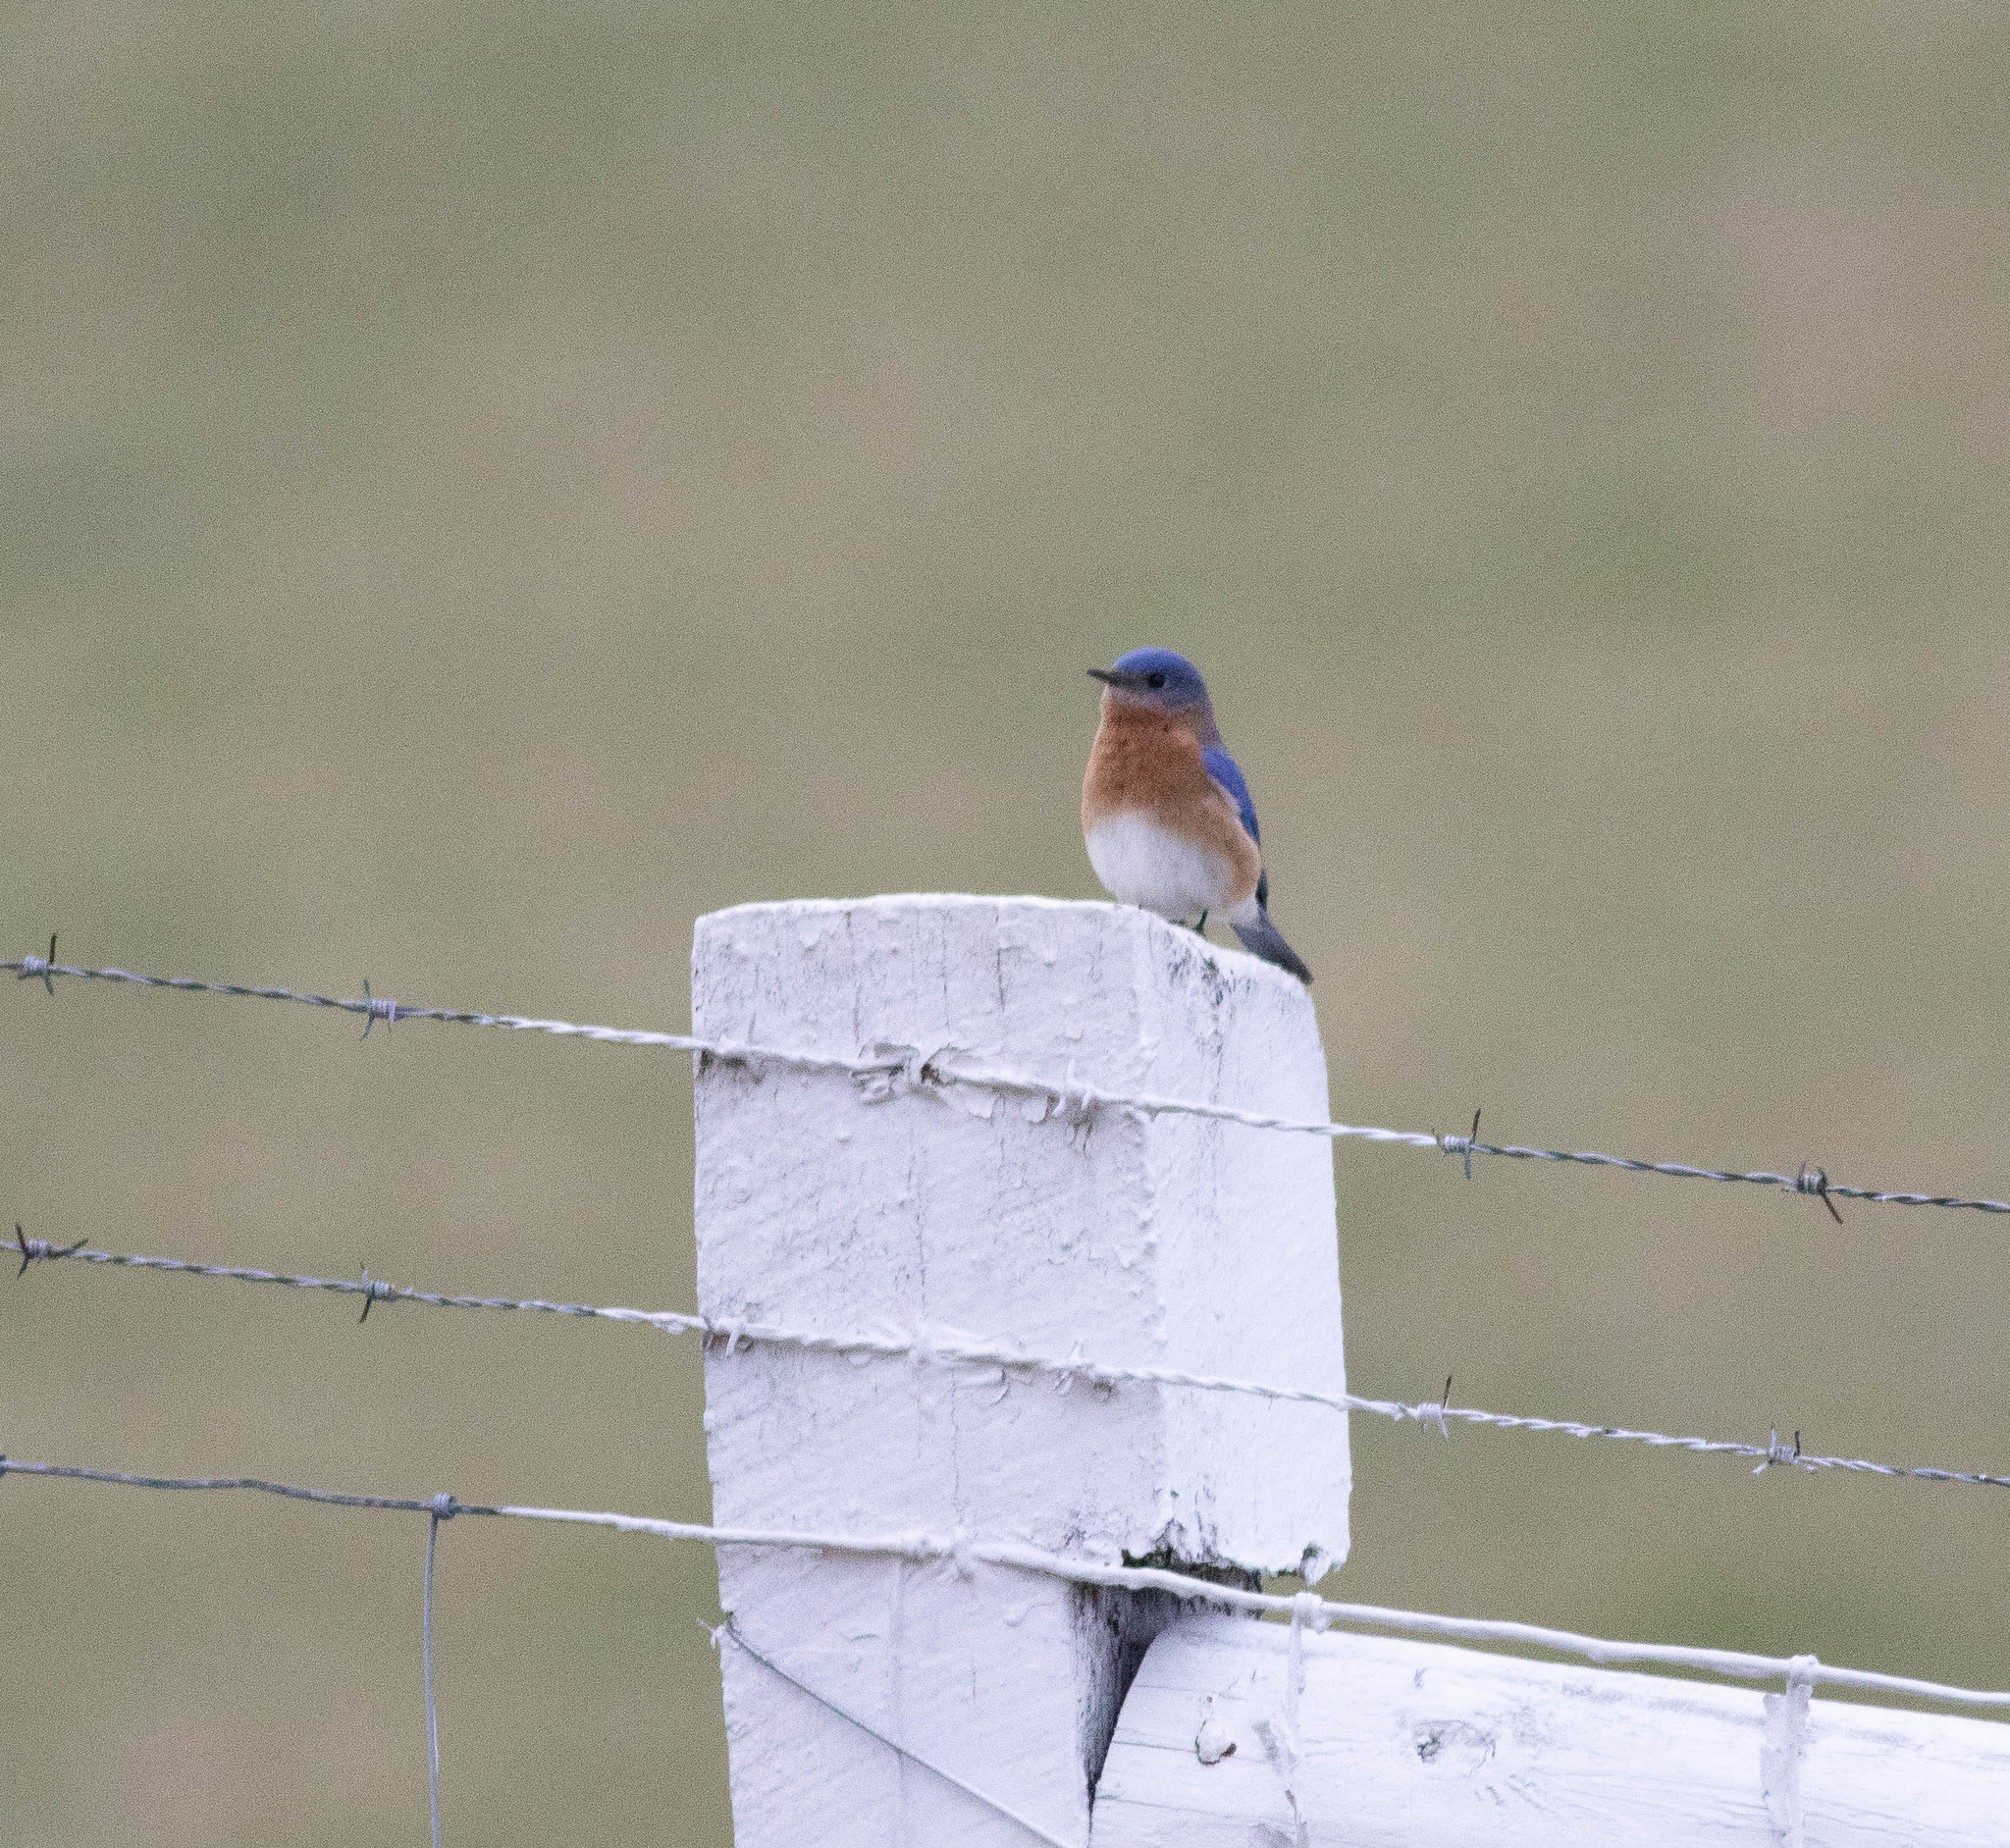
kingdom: Animalia
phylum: Chordata
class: Aves
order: Passeriformes
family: Turdidae
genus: Sialia
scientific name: Sialia sialis
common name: Eastern bluebird
